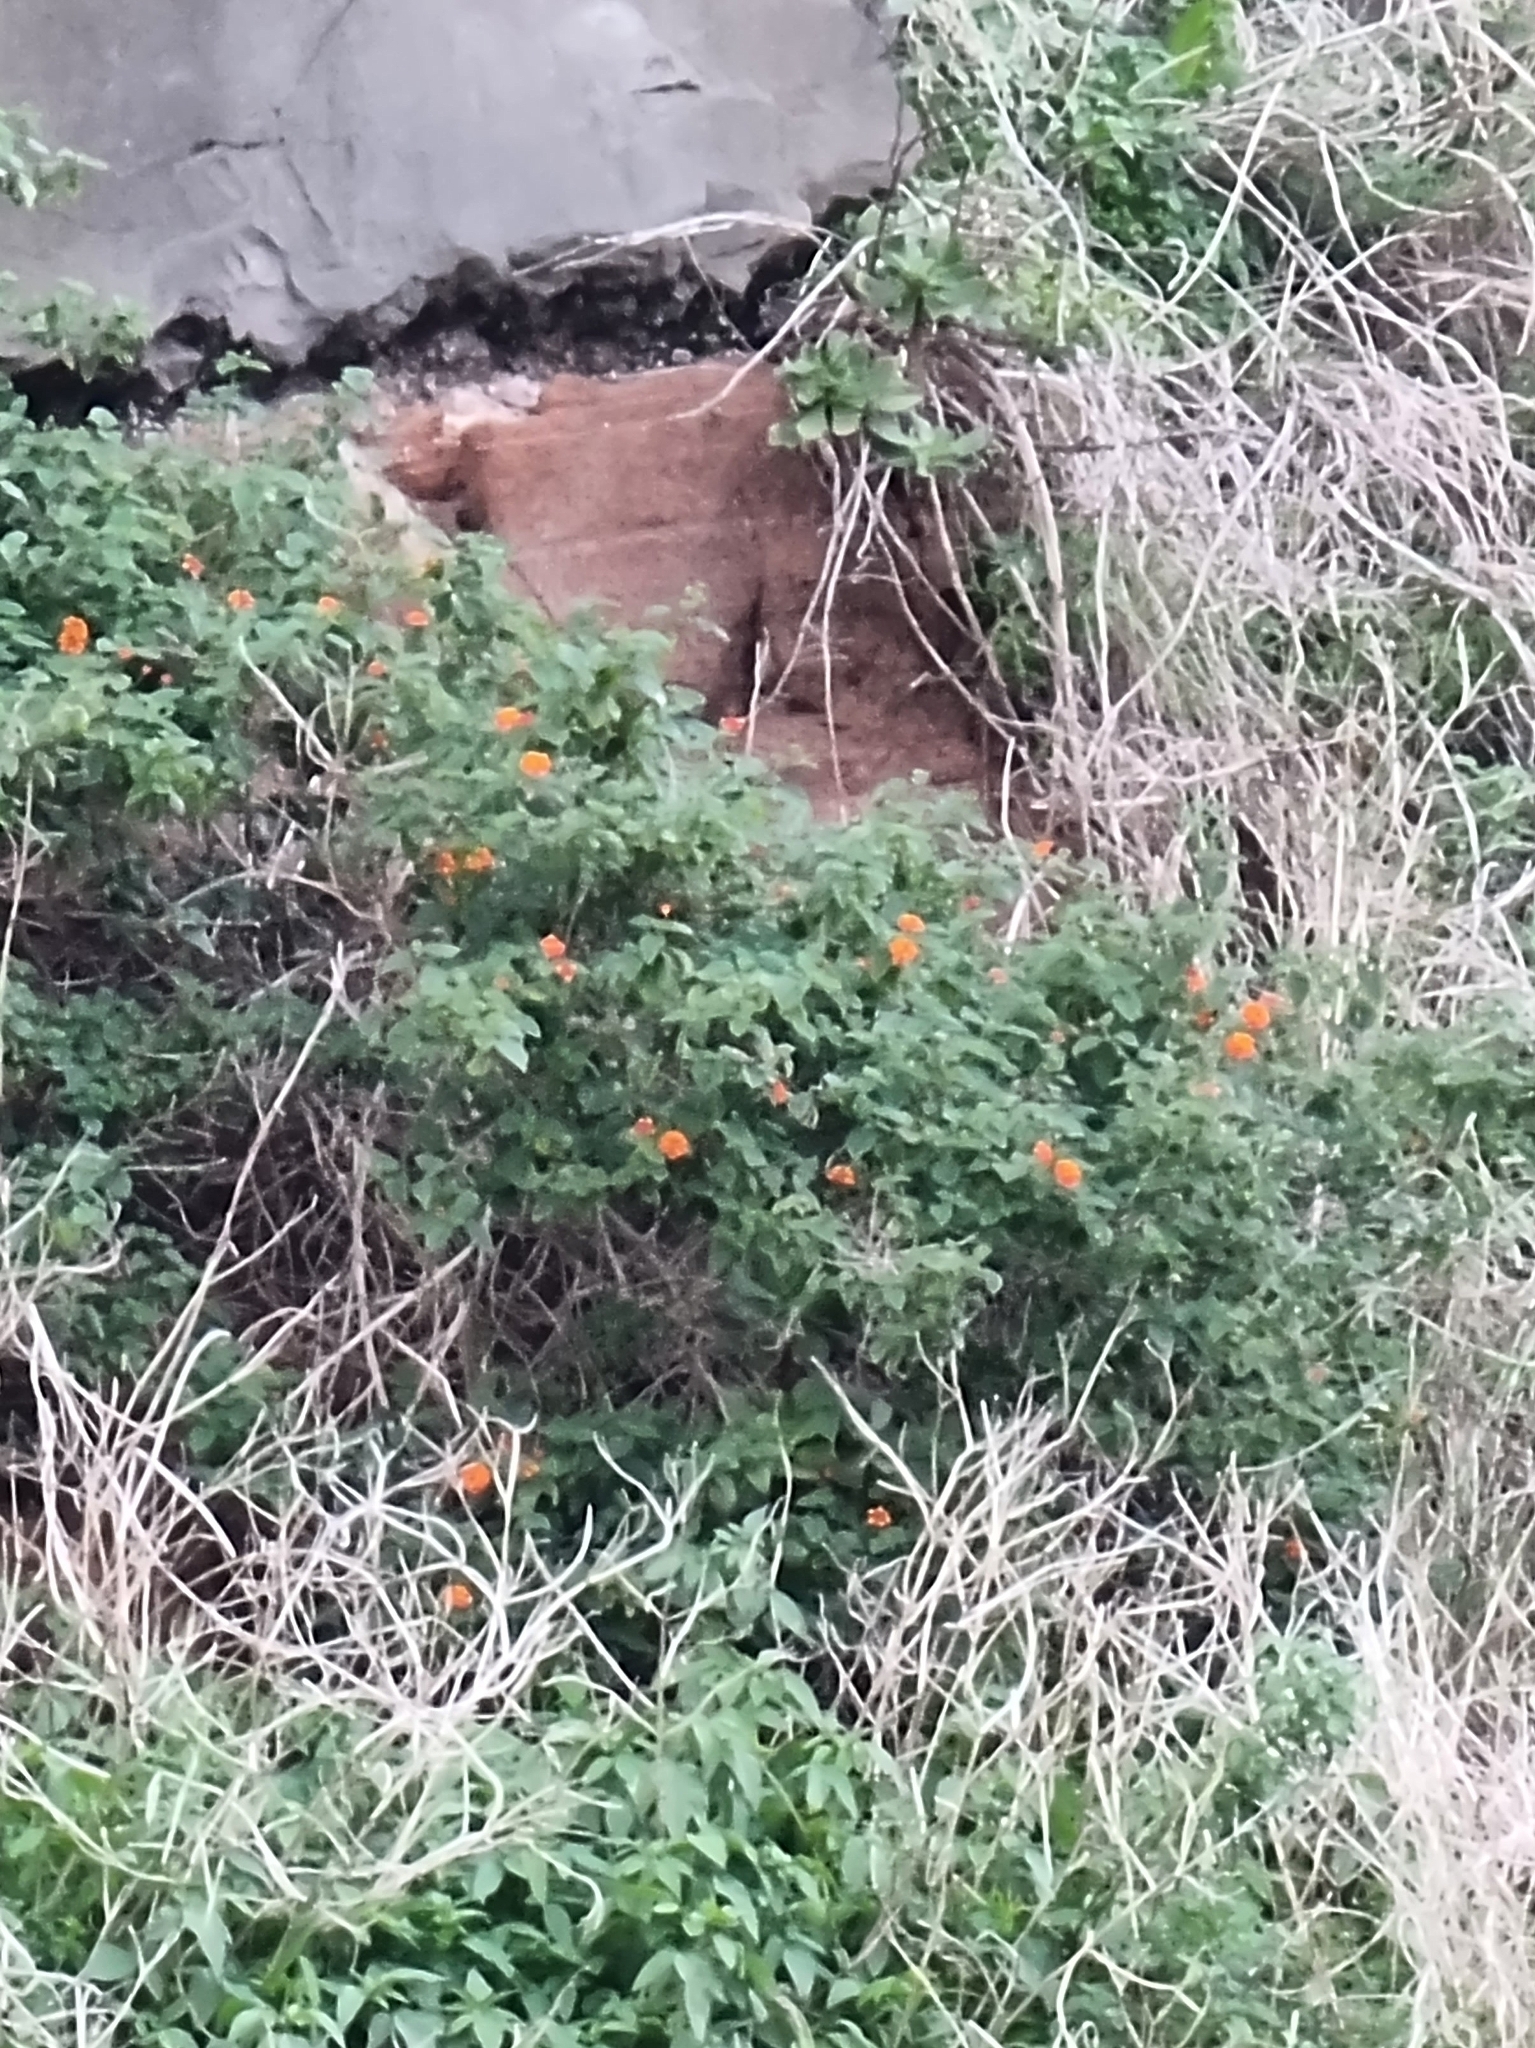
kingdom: Plantae
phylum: Tracheophyta
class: Magnoliopsida
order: Lamiales
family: Verbenaceae
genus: Lantana
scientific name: Lantana camara
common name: Lantana
